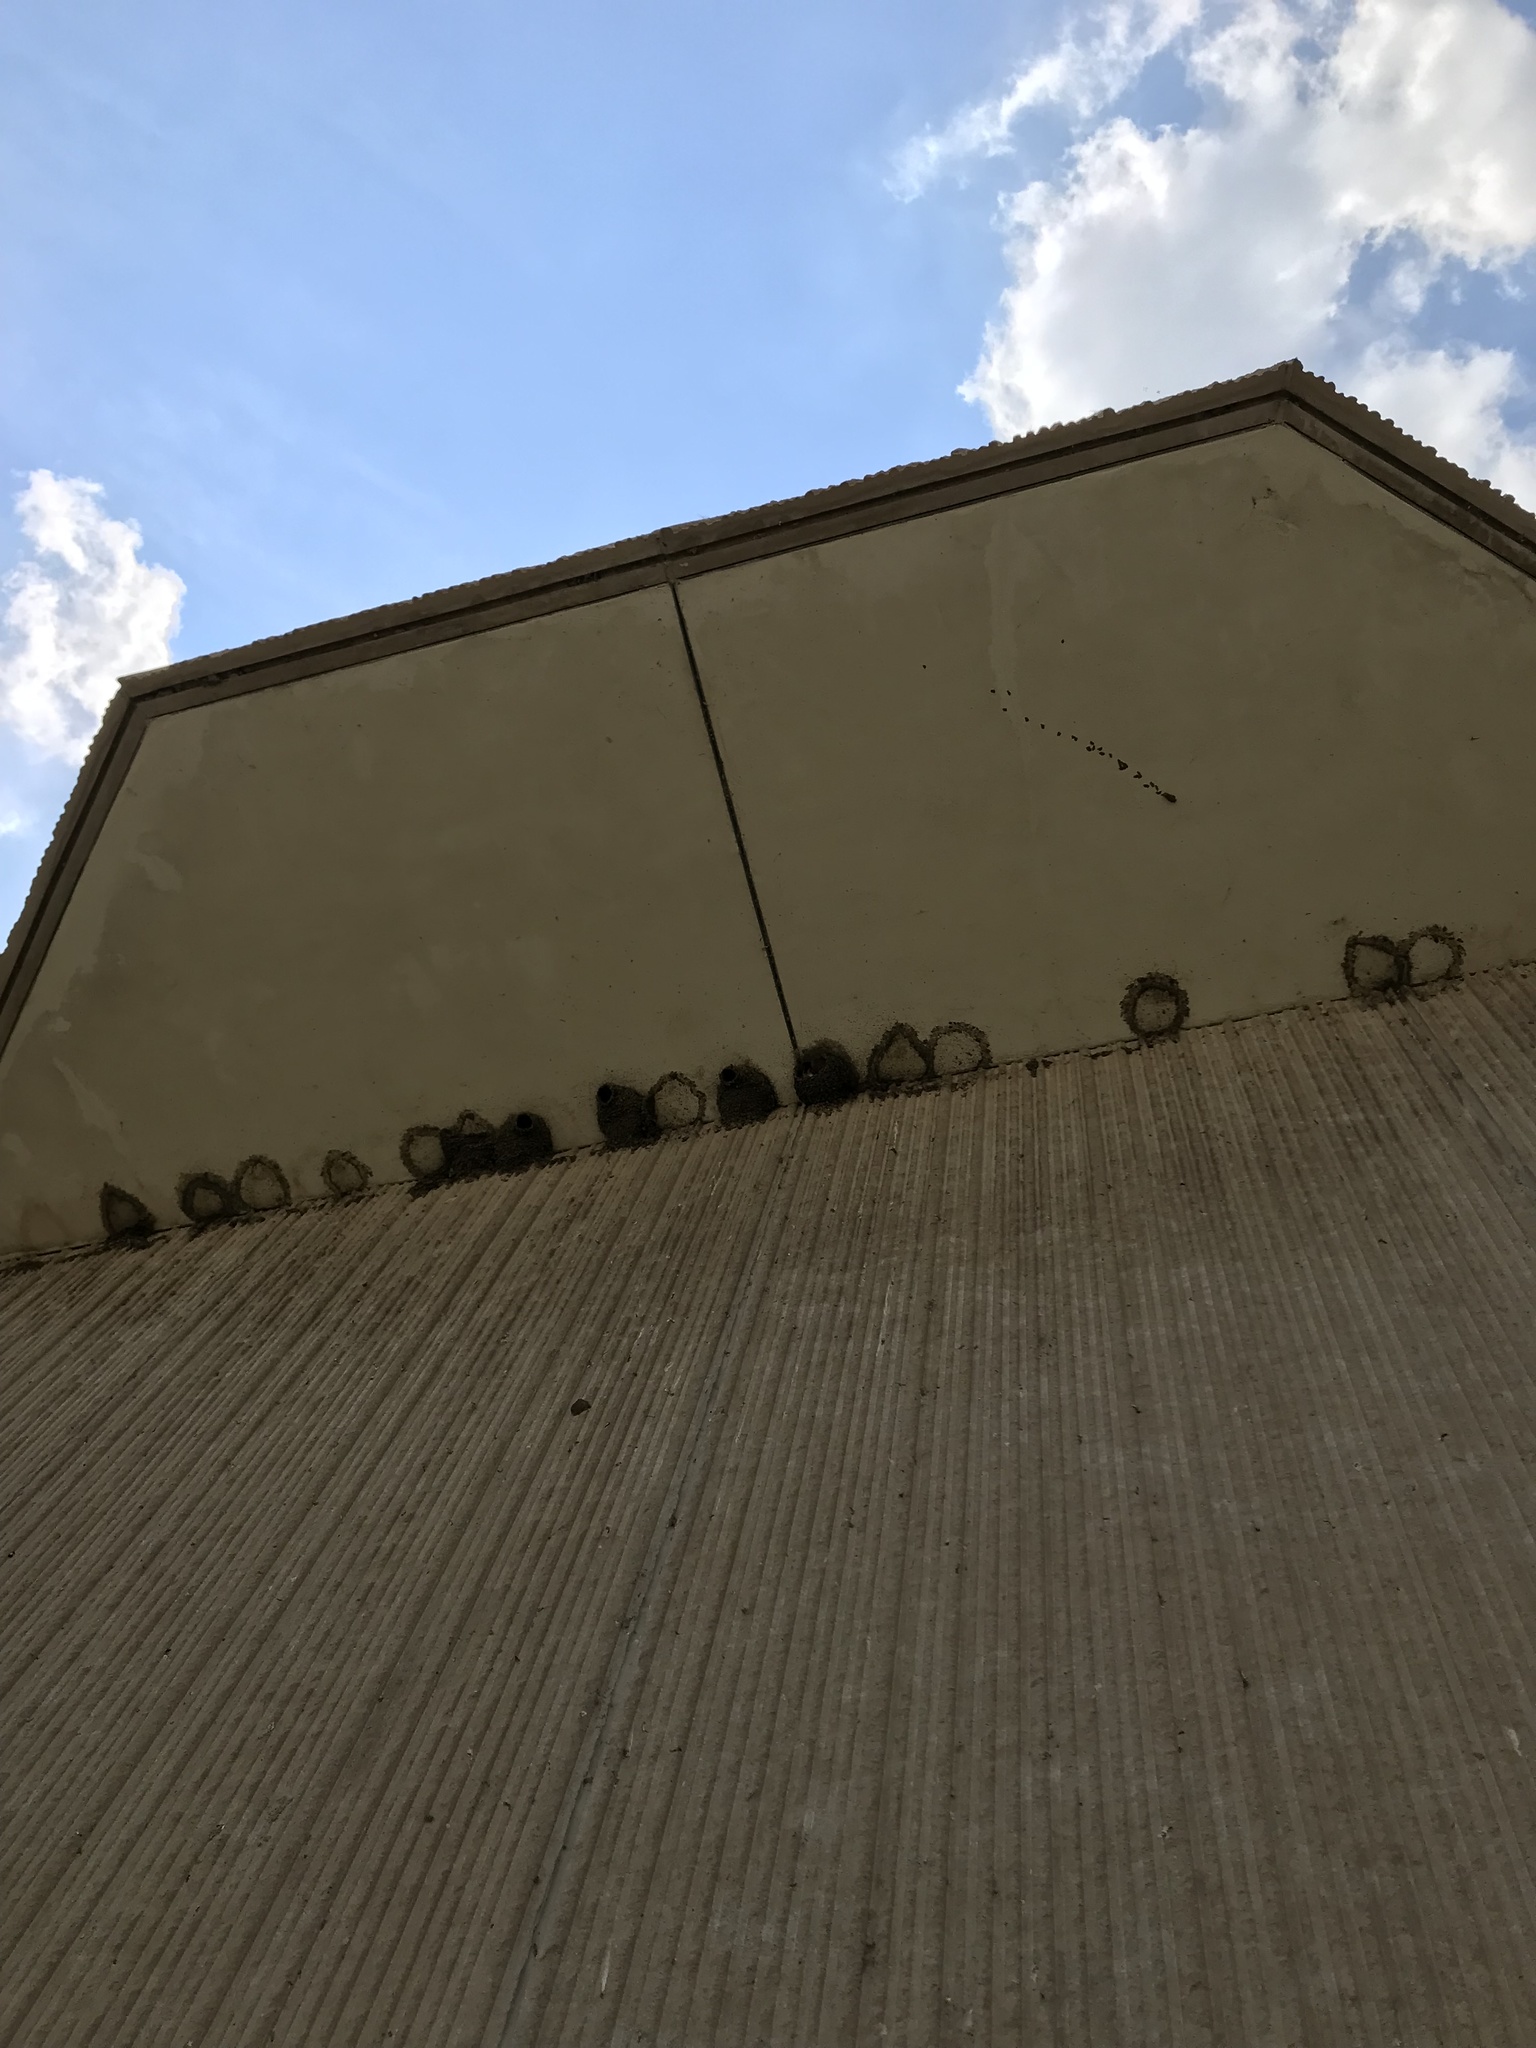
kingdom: Animalia
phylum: Chordata
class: Aves
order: Passeriformes
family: Hirundinidae
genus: Petrochelidon
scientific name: Petrochelidon pyrrhonota
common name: American cliff swallow
